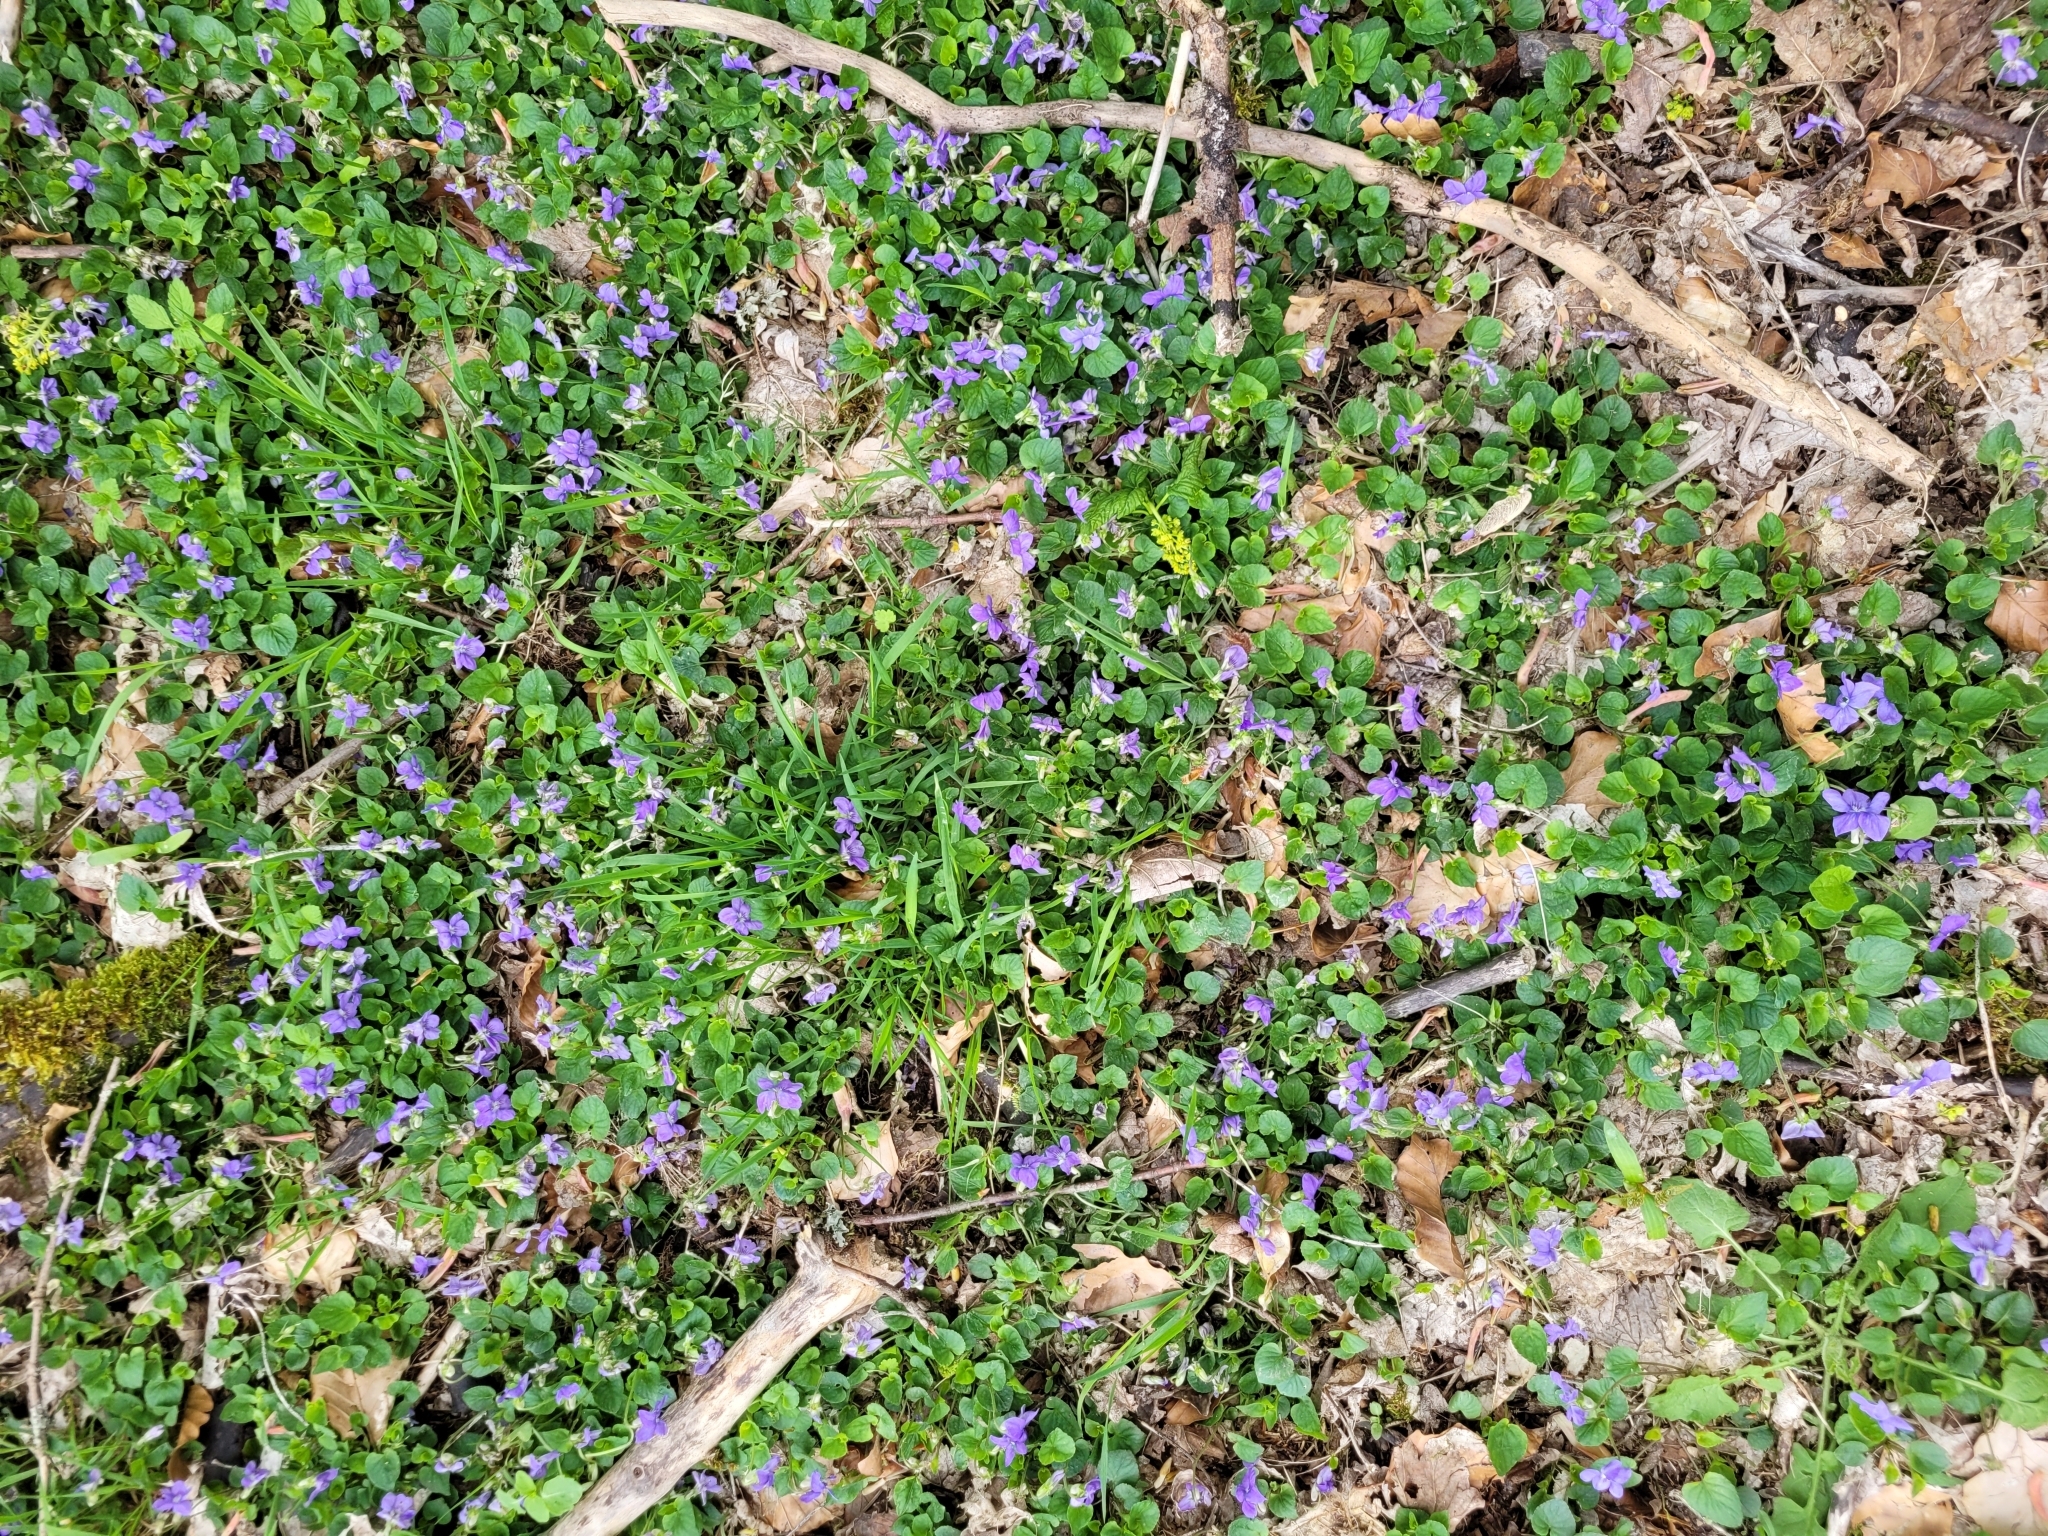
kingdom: Plantae
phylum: Tracheophyta
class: Magnoliopsida
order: Malpighiales
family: Violaceae
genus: Viola
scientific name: Viola riviniana
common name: Common dog-violet
